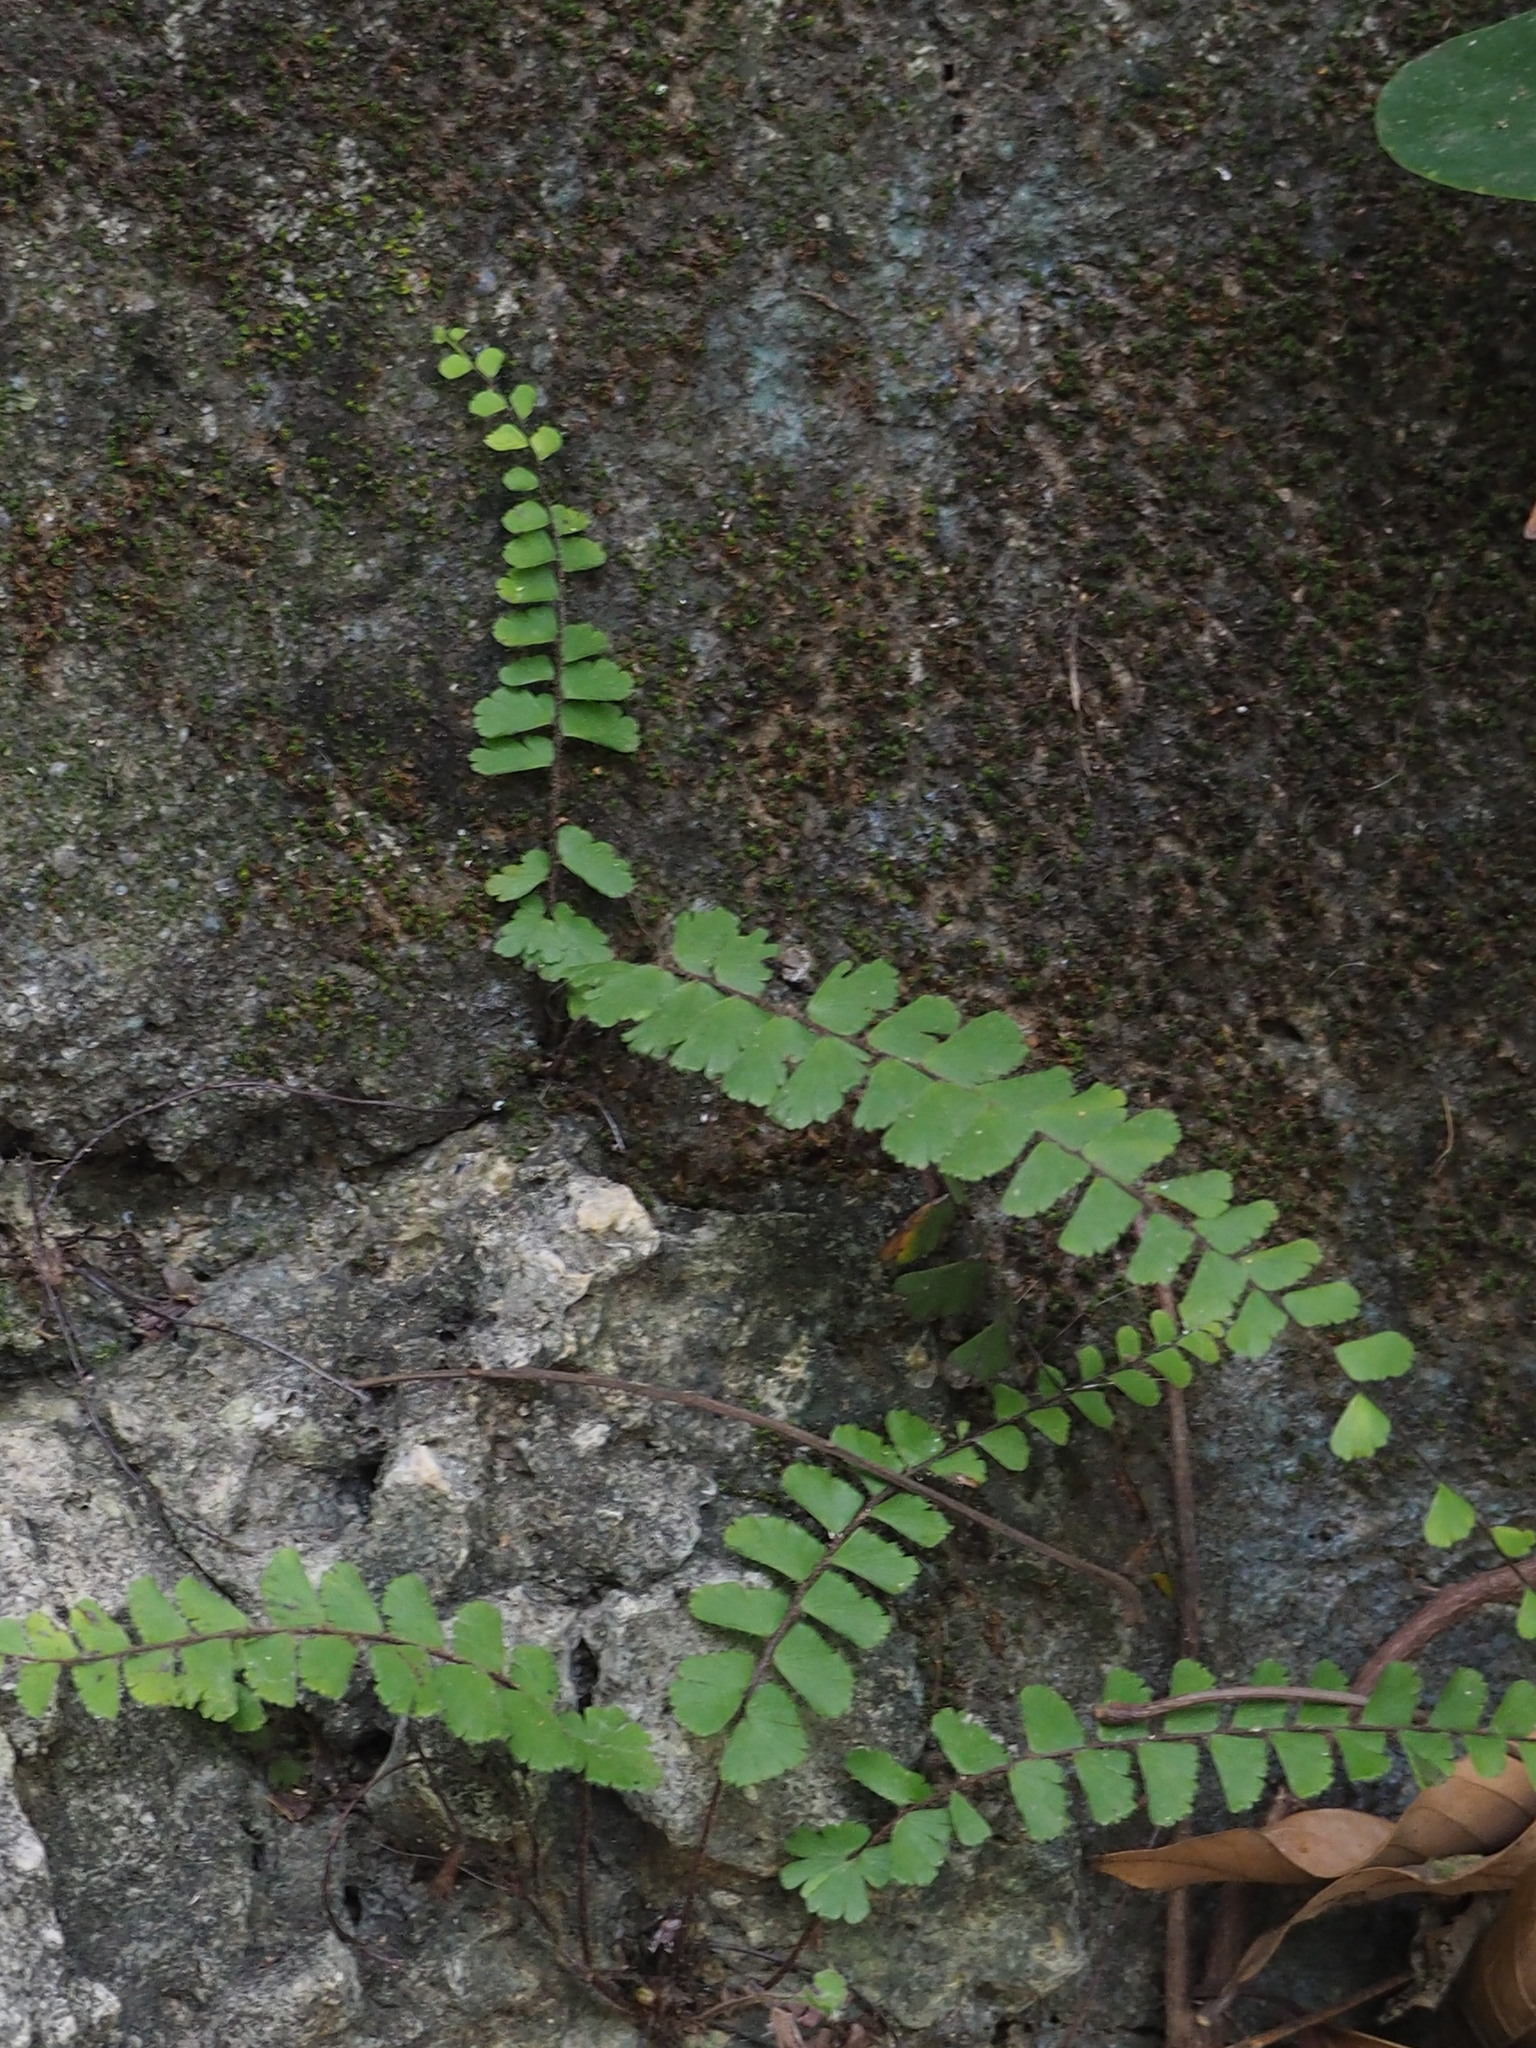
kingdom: Plantae
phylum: Tracheophyta
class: Polypodiopsida
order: Polypodiales
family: Pteridaceae
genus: Adiantum
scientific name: Adiantum ciliatum
